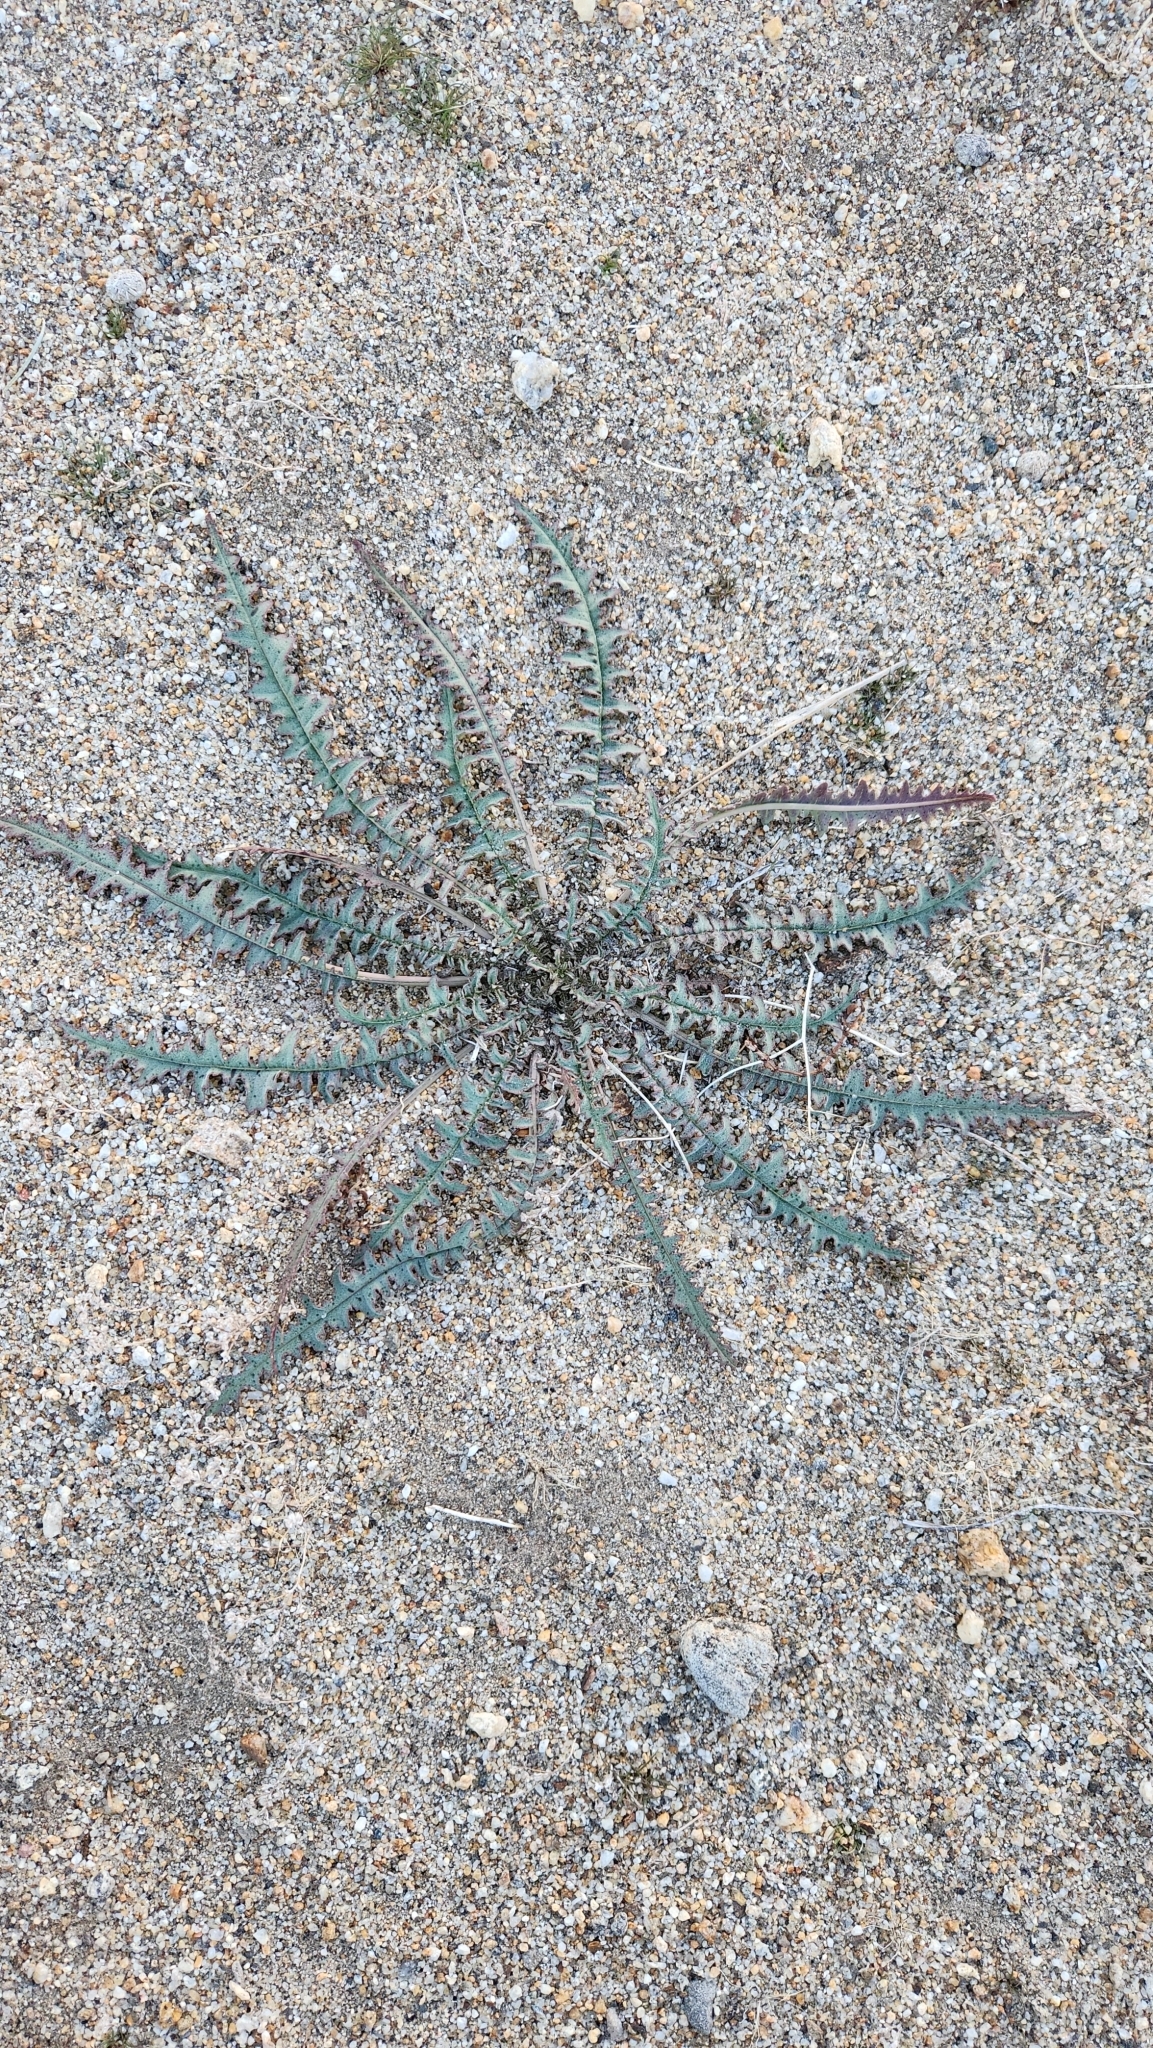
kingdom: Plantae
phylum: Tracheophyta
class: Magnoliopsida
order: Myrtales
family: Onagraceae
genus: Eulobus
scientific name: Eulobus californicus
